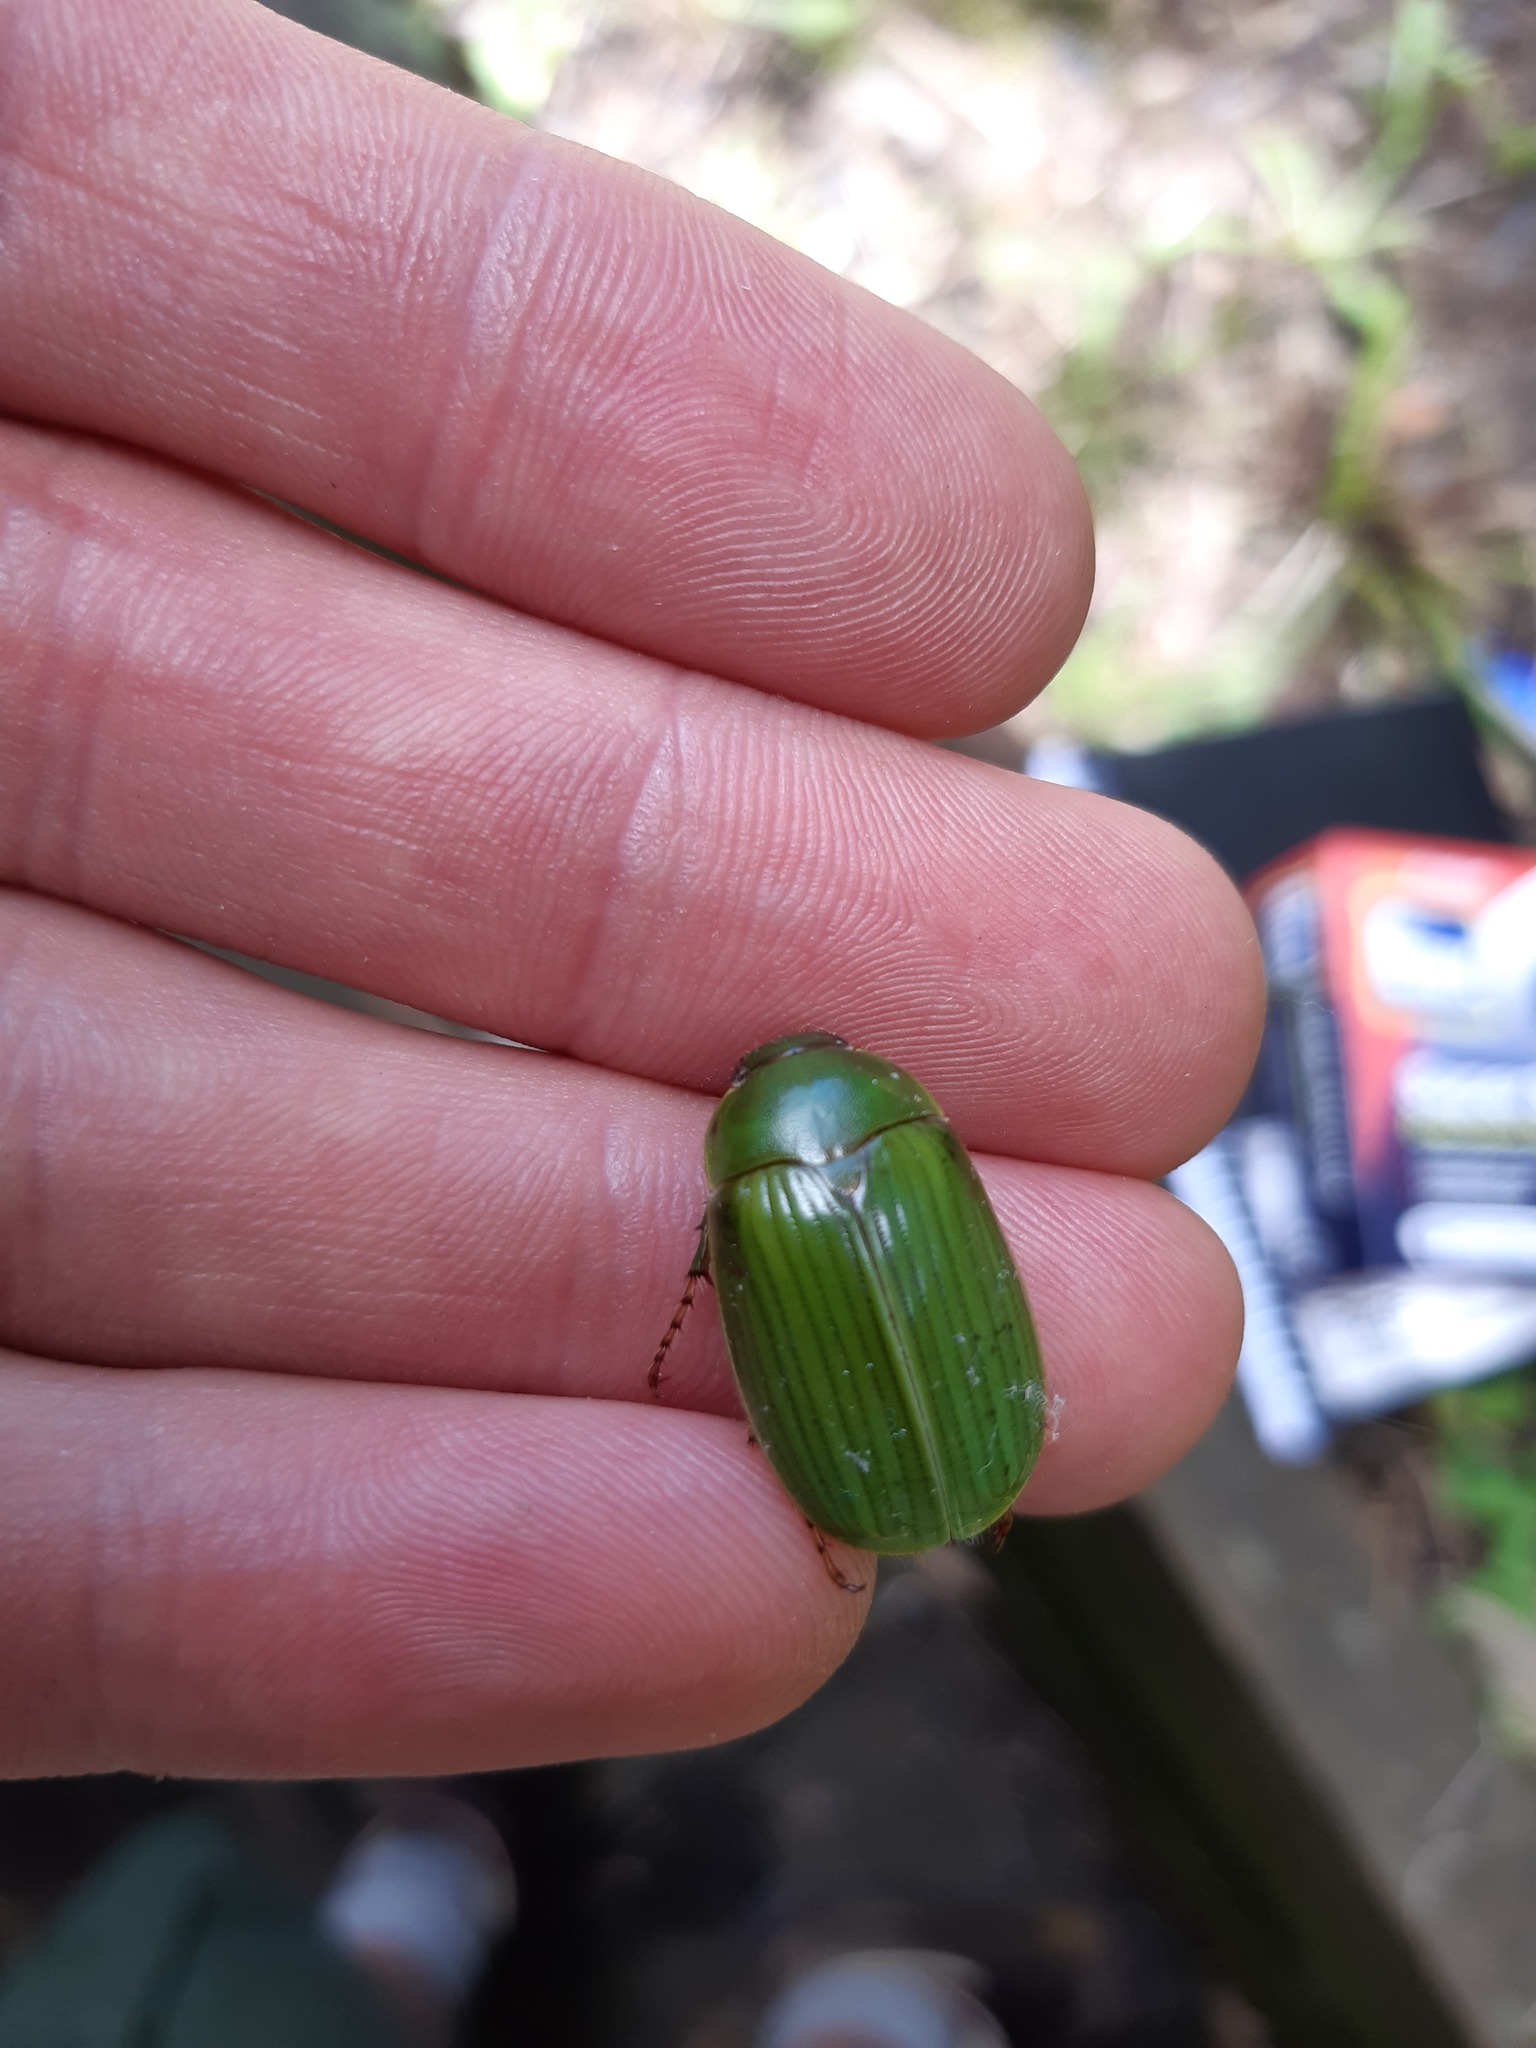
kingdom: Animalia
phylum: Arthropoda
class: Insecta
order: Coleoptera
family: Scarabaeidae
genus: Stethaspis
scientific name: Stethaspis longicornis
